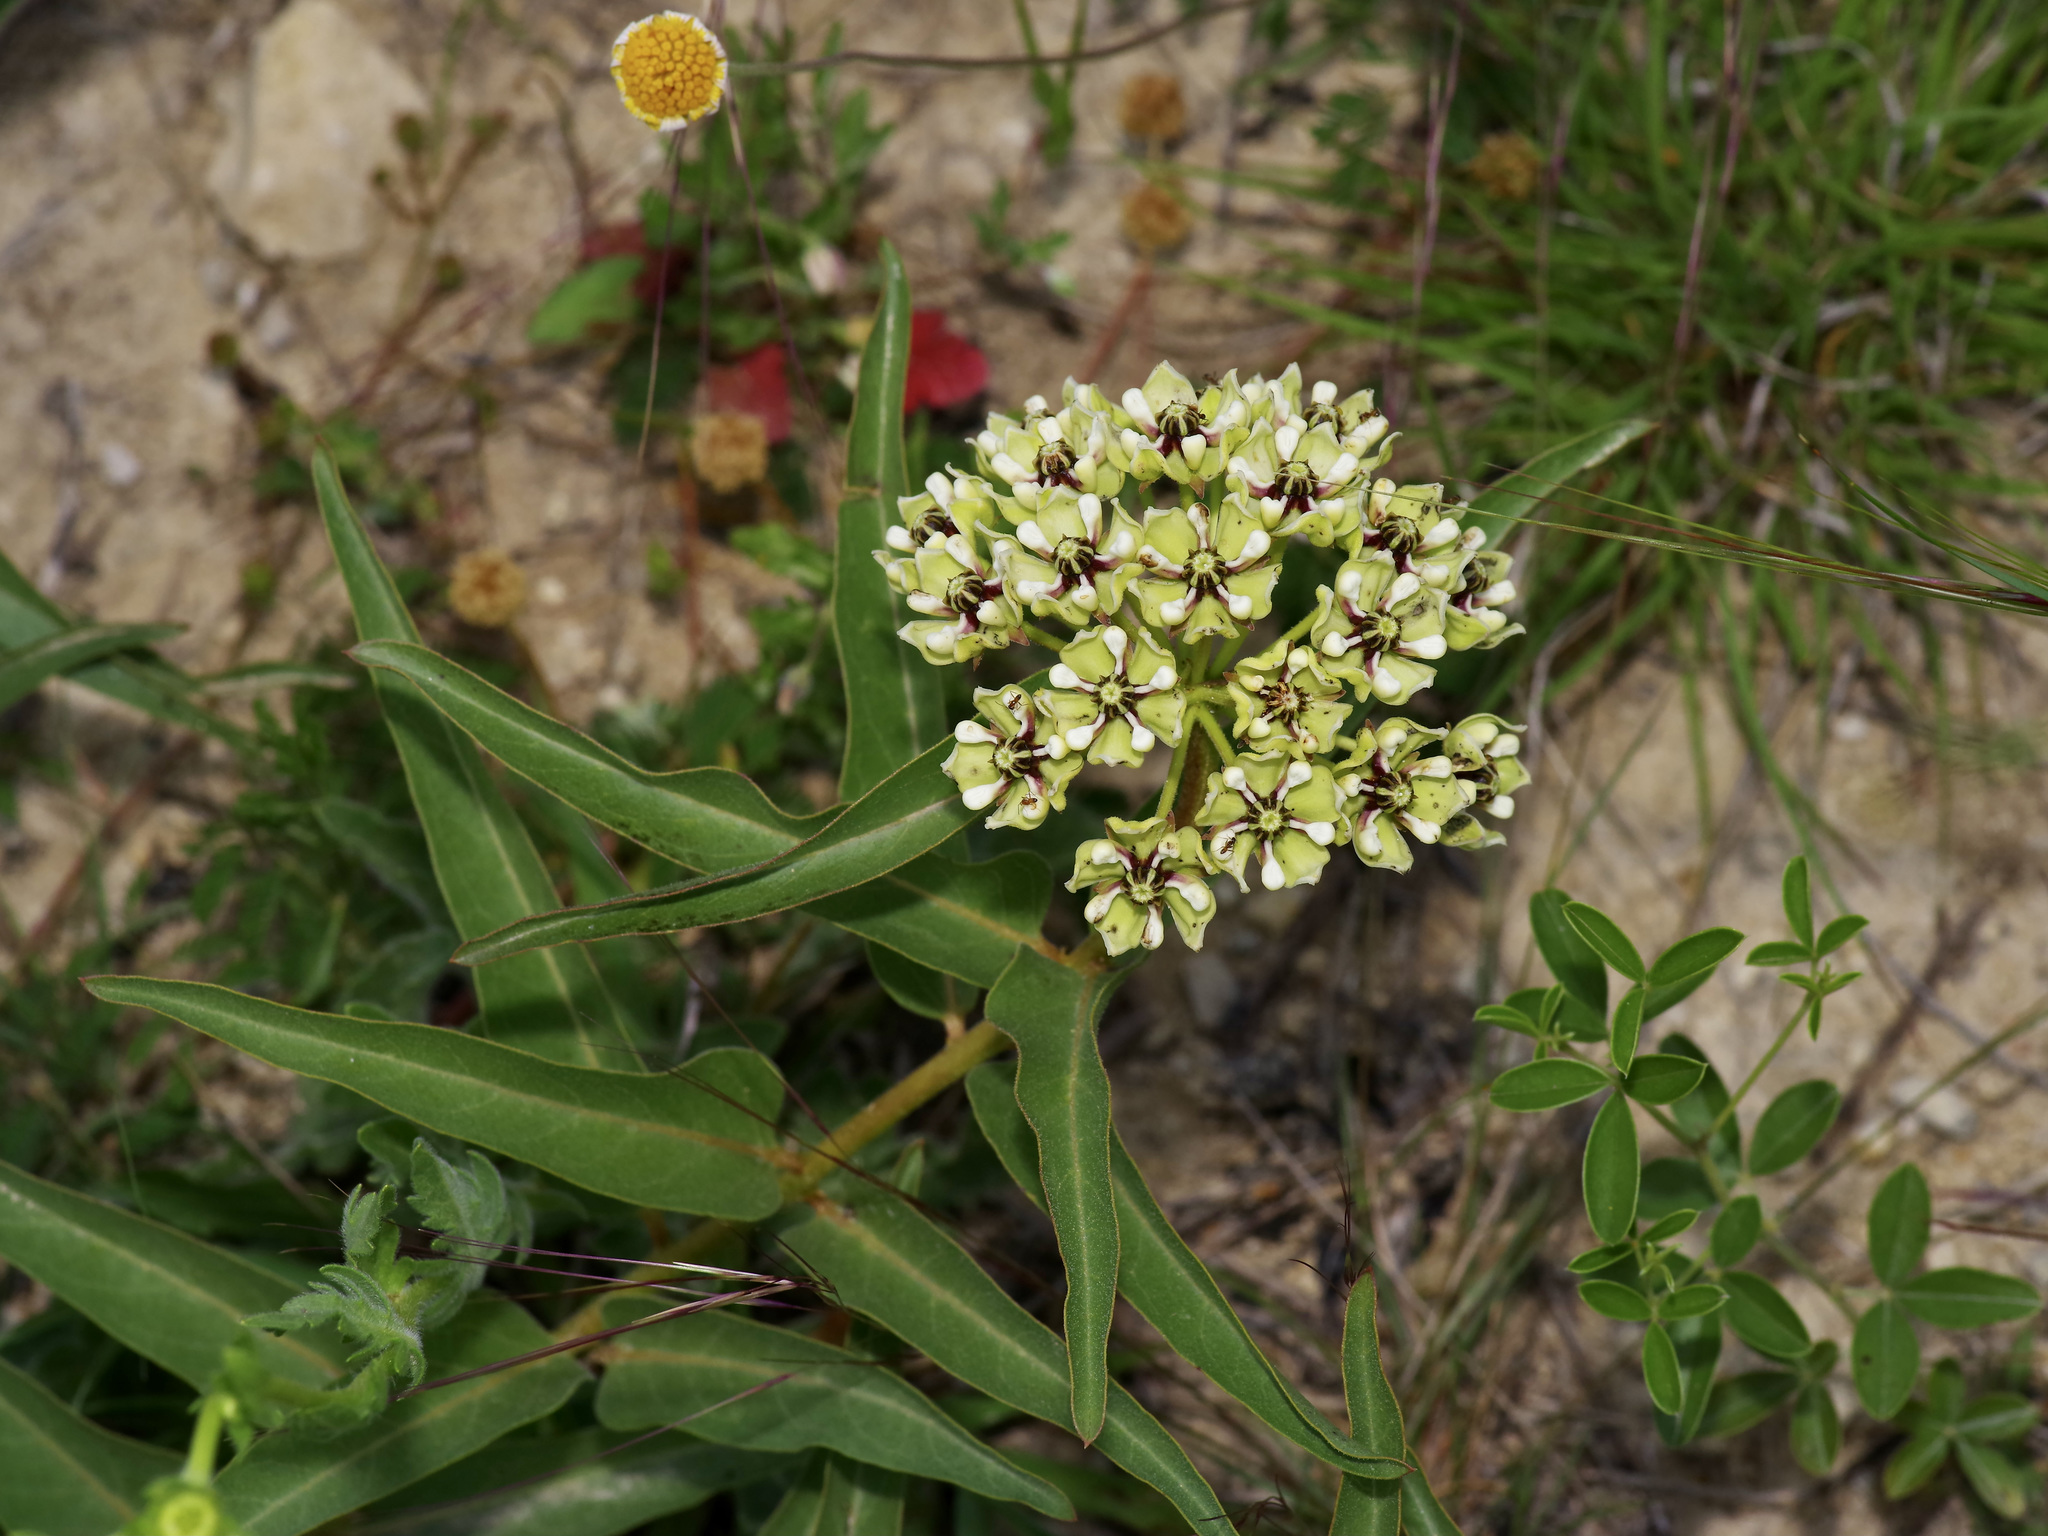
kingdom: Plantae
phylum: Tracheophyta
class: Magnoliopsida
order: Gentianales
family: Apocynaceae
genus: Asclepias
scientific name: Asclepias asperula
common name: Antelope horns
